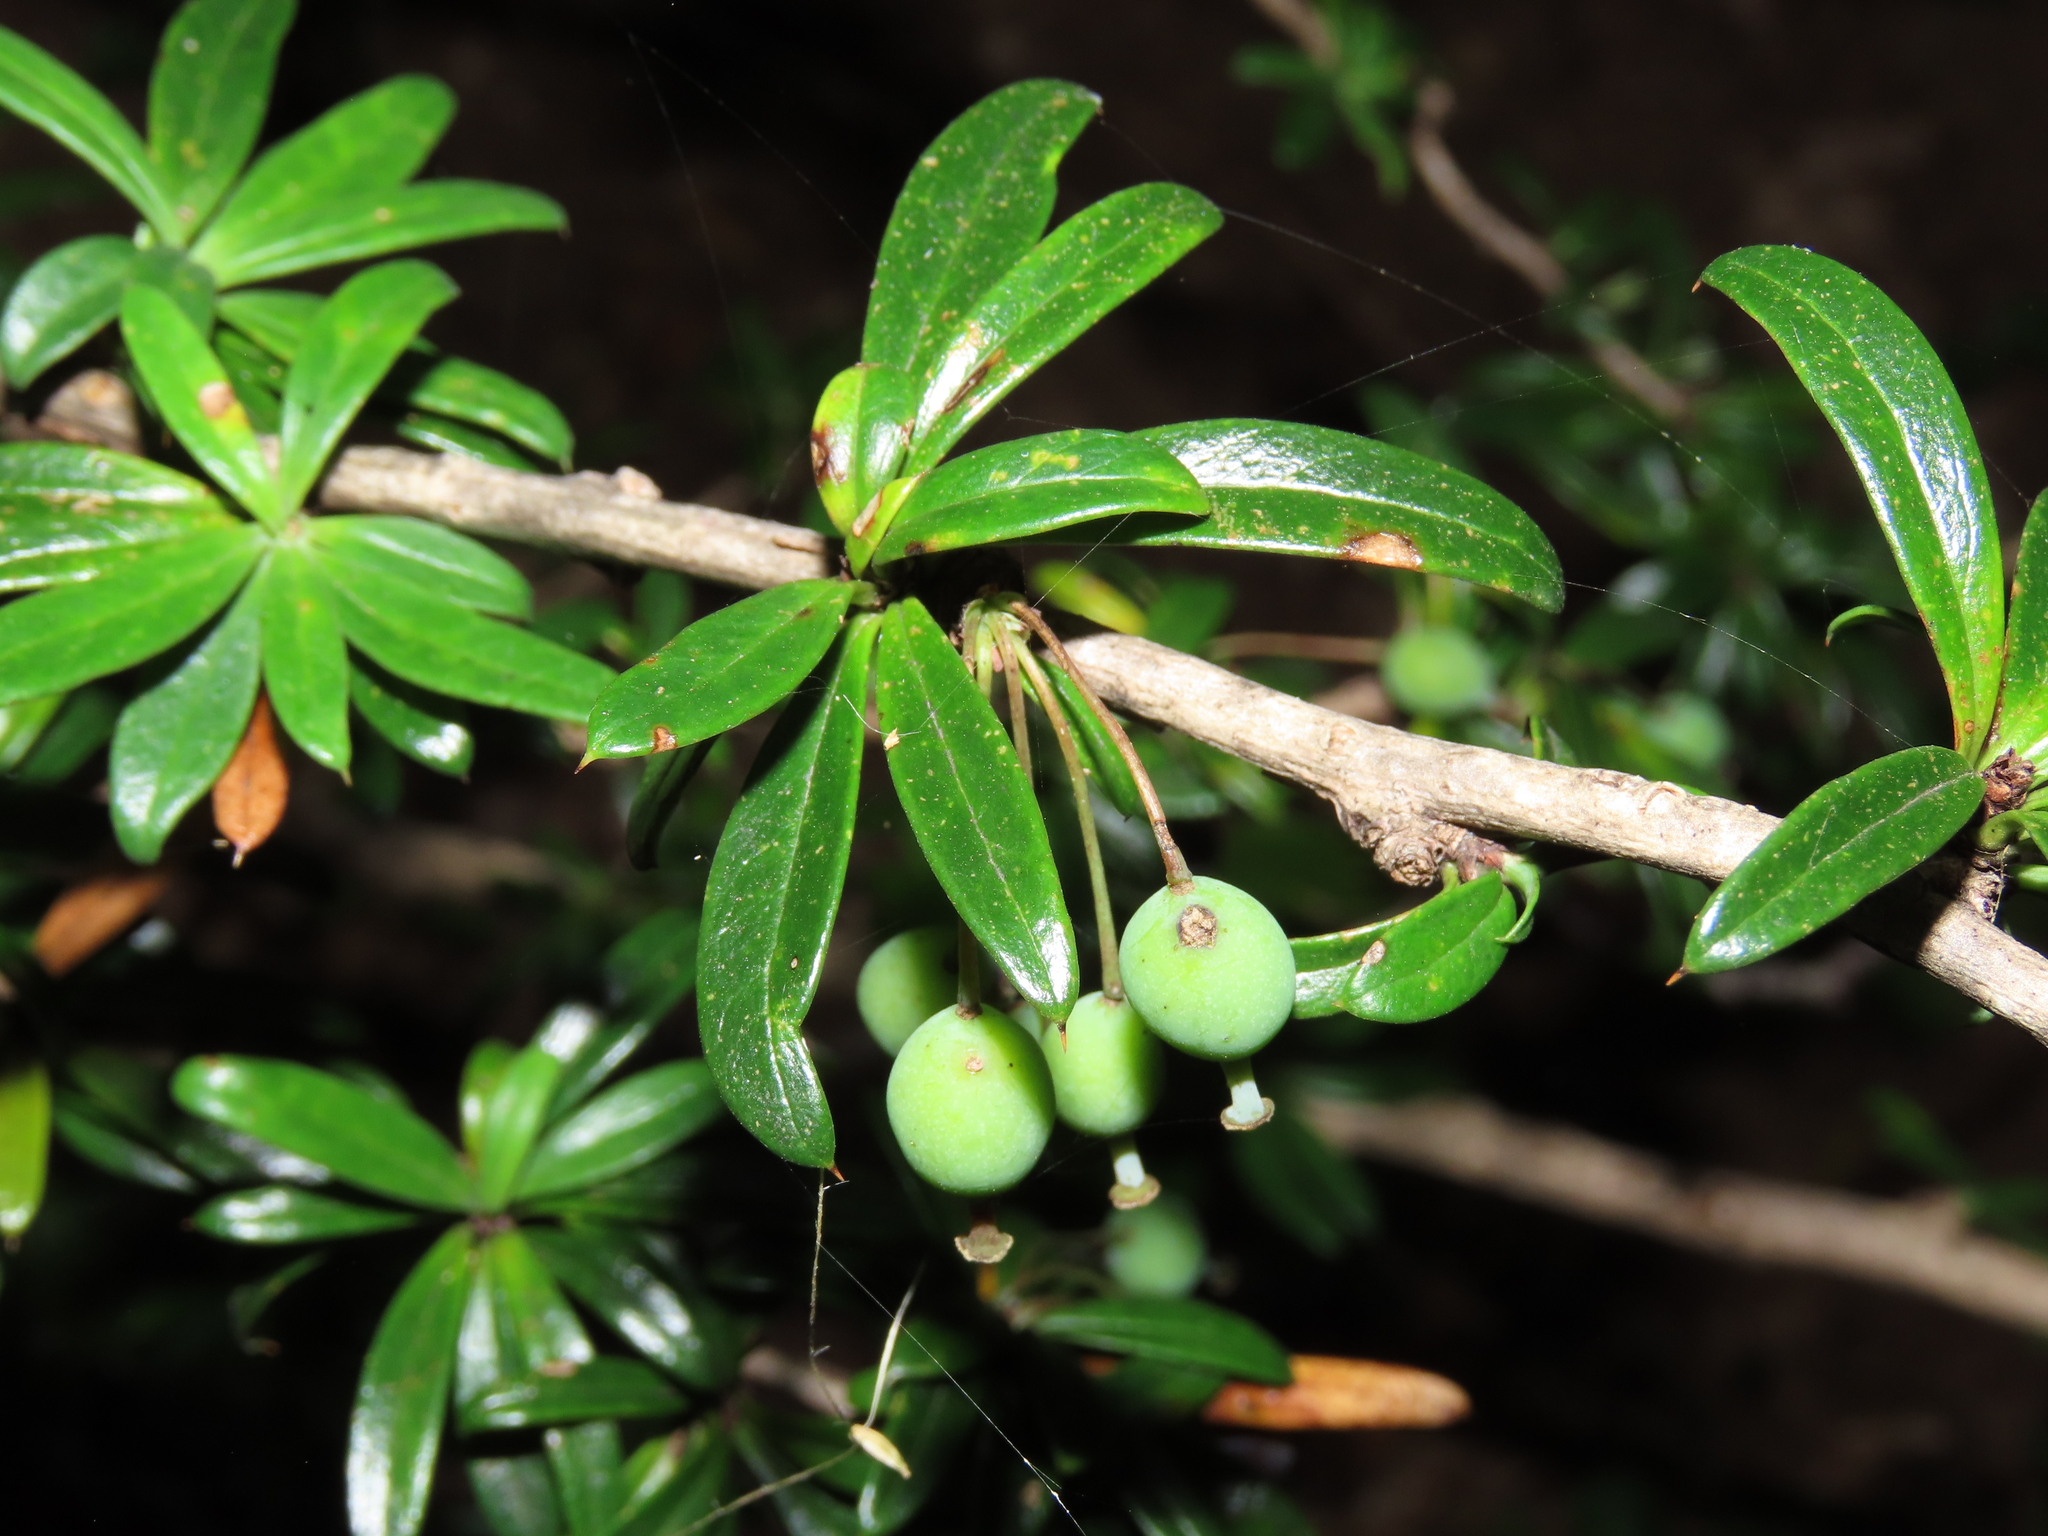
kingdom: Plantae
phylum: Tracheophyta
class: Magnoliopsida
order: Ranunculales
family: Berberidaceae
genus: Berberis
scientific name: Berberis trigona
